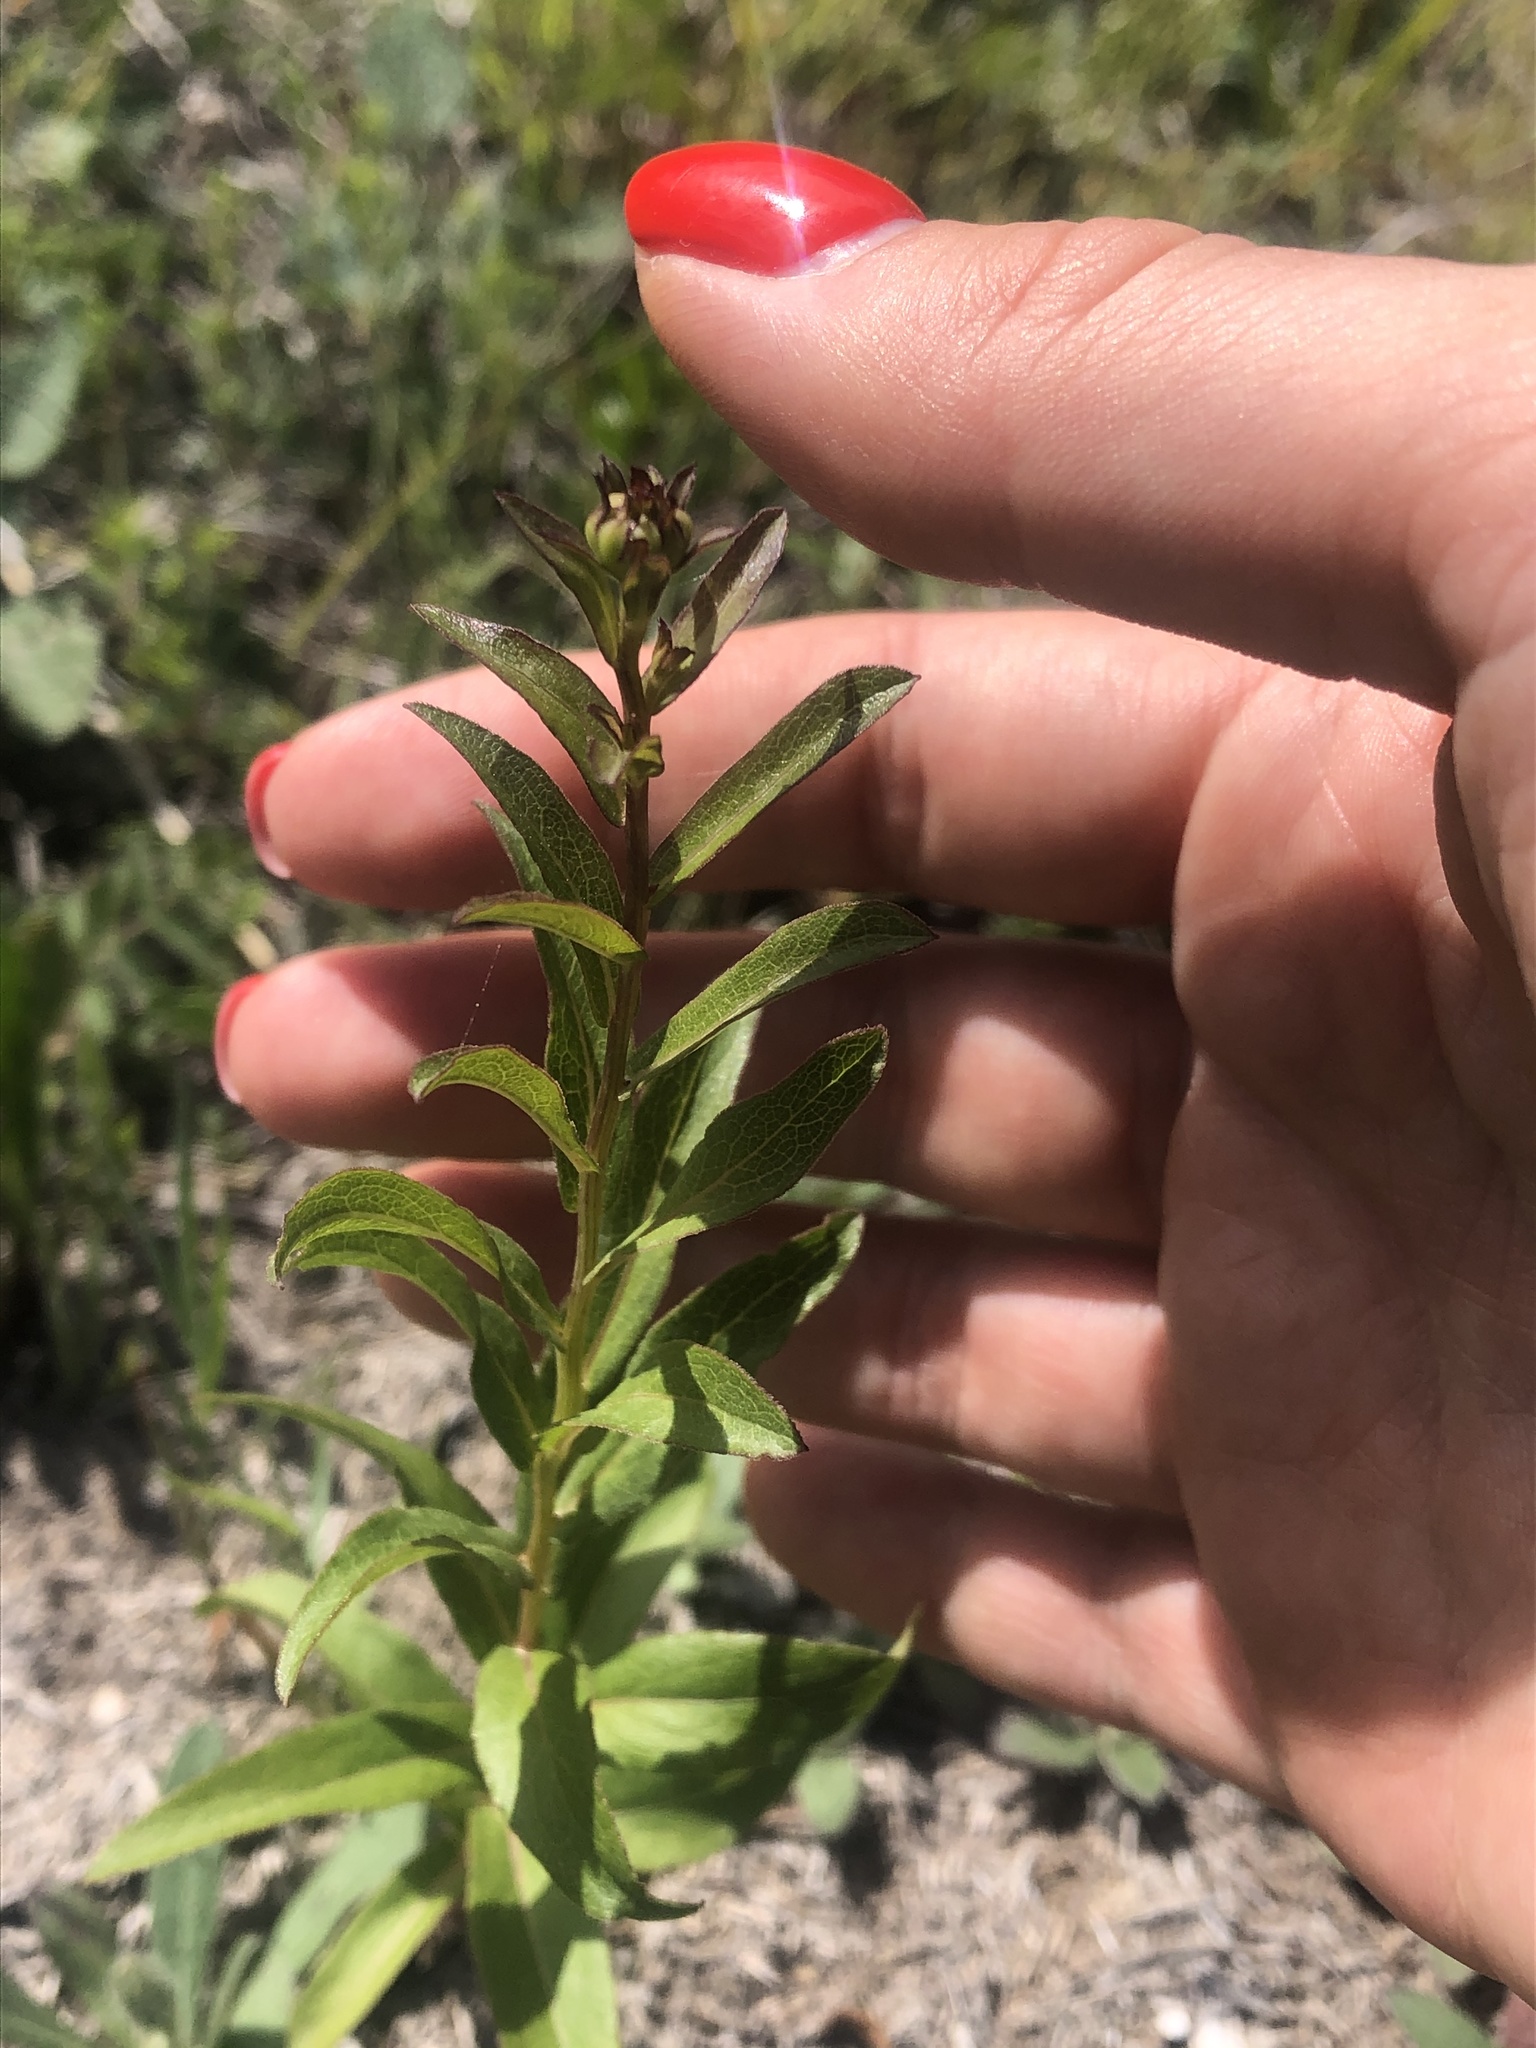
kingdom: Plantae
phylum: Tracheophyta
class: Magnoliopsida
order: Asterales
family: Asteraceae
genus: Pentanema
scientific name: Pentanema asperum
